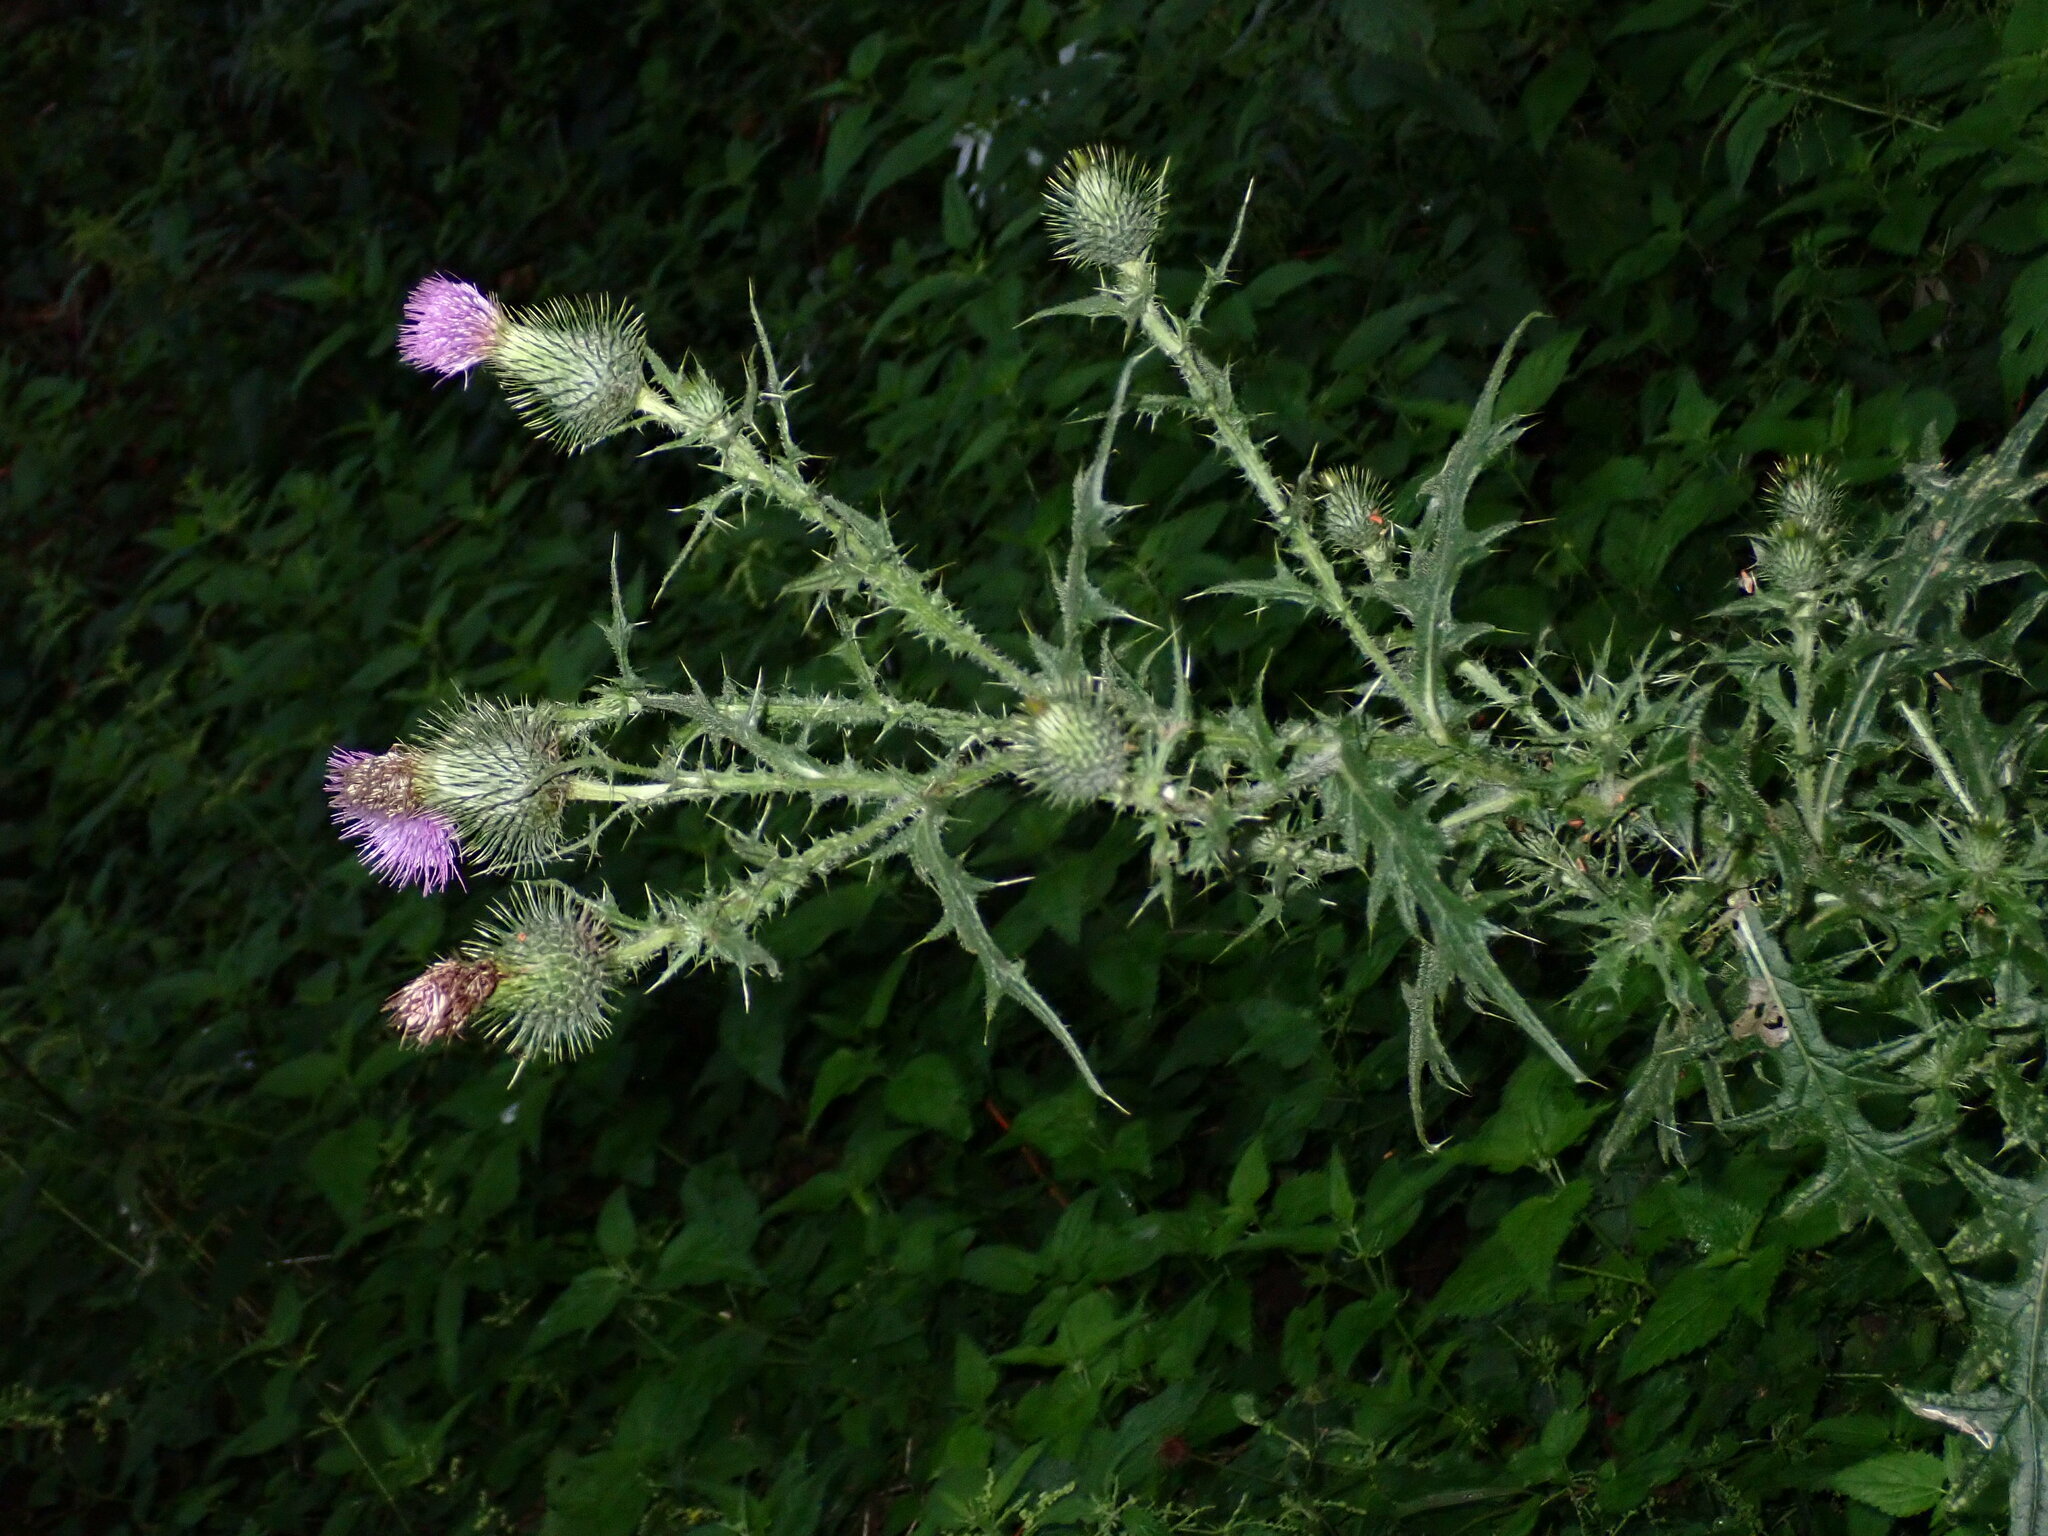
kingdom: Plantae
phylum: Tracheophyta
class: Magnoliopsida
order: Asterales
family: Asteraceae
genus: Cirsium
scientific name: Cirsium vulgare
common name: Bull thistle
